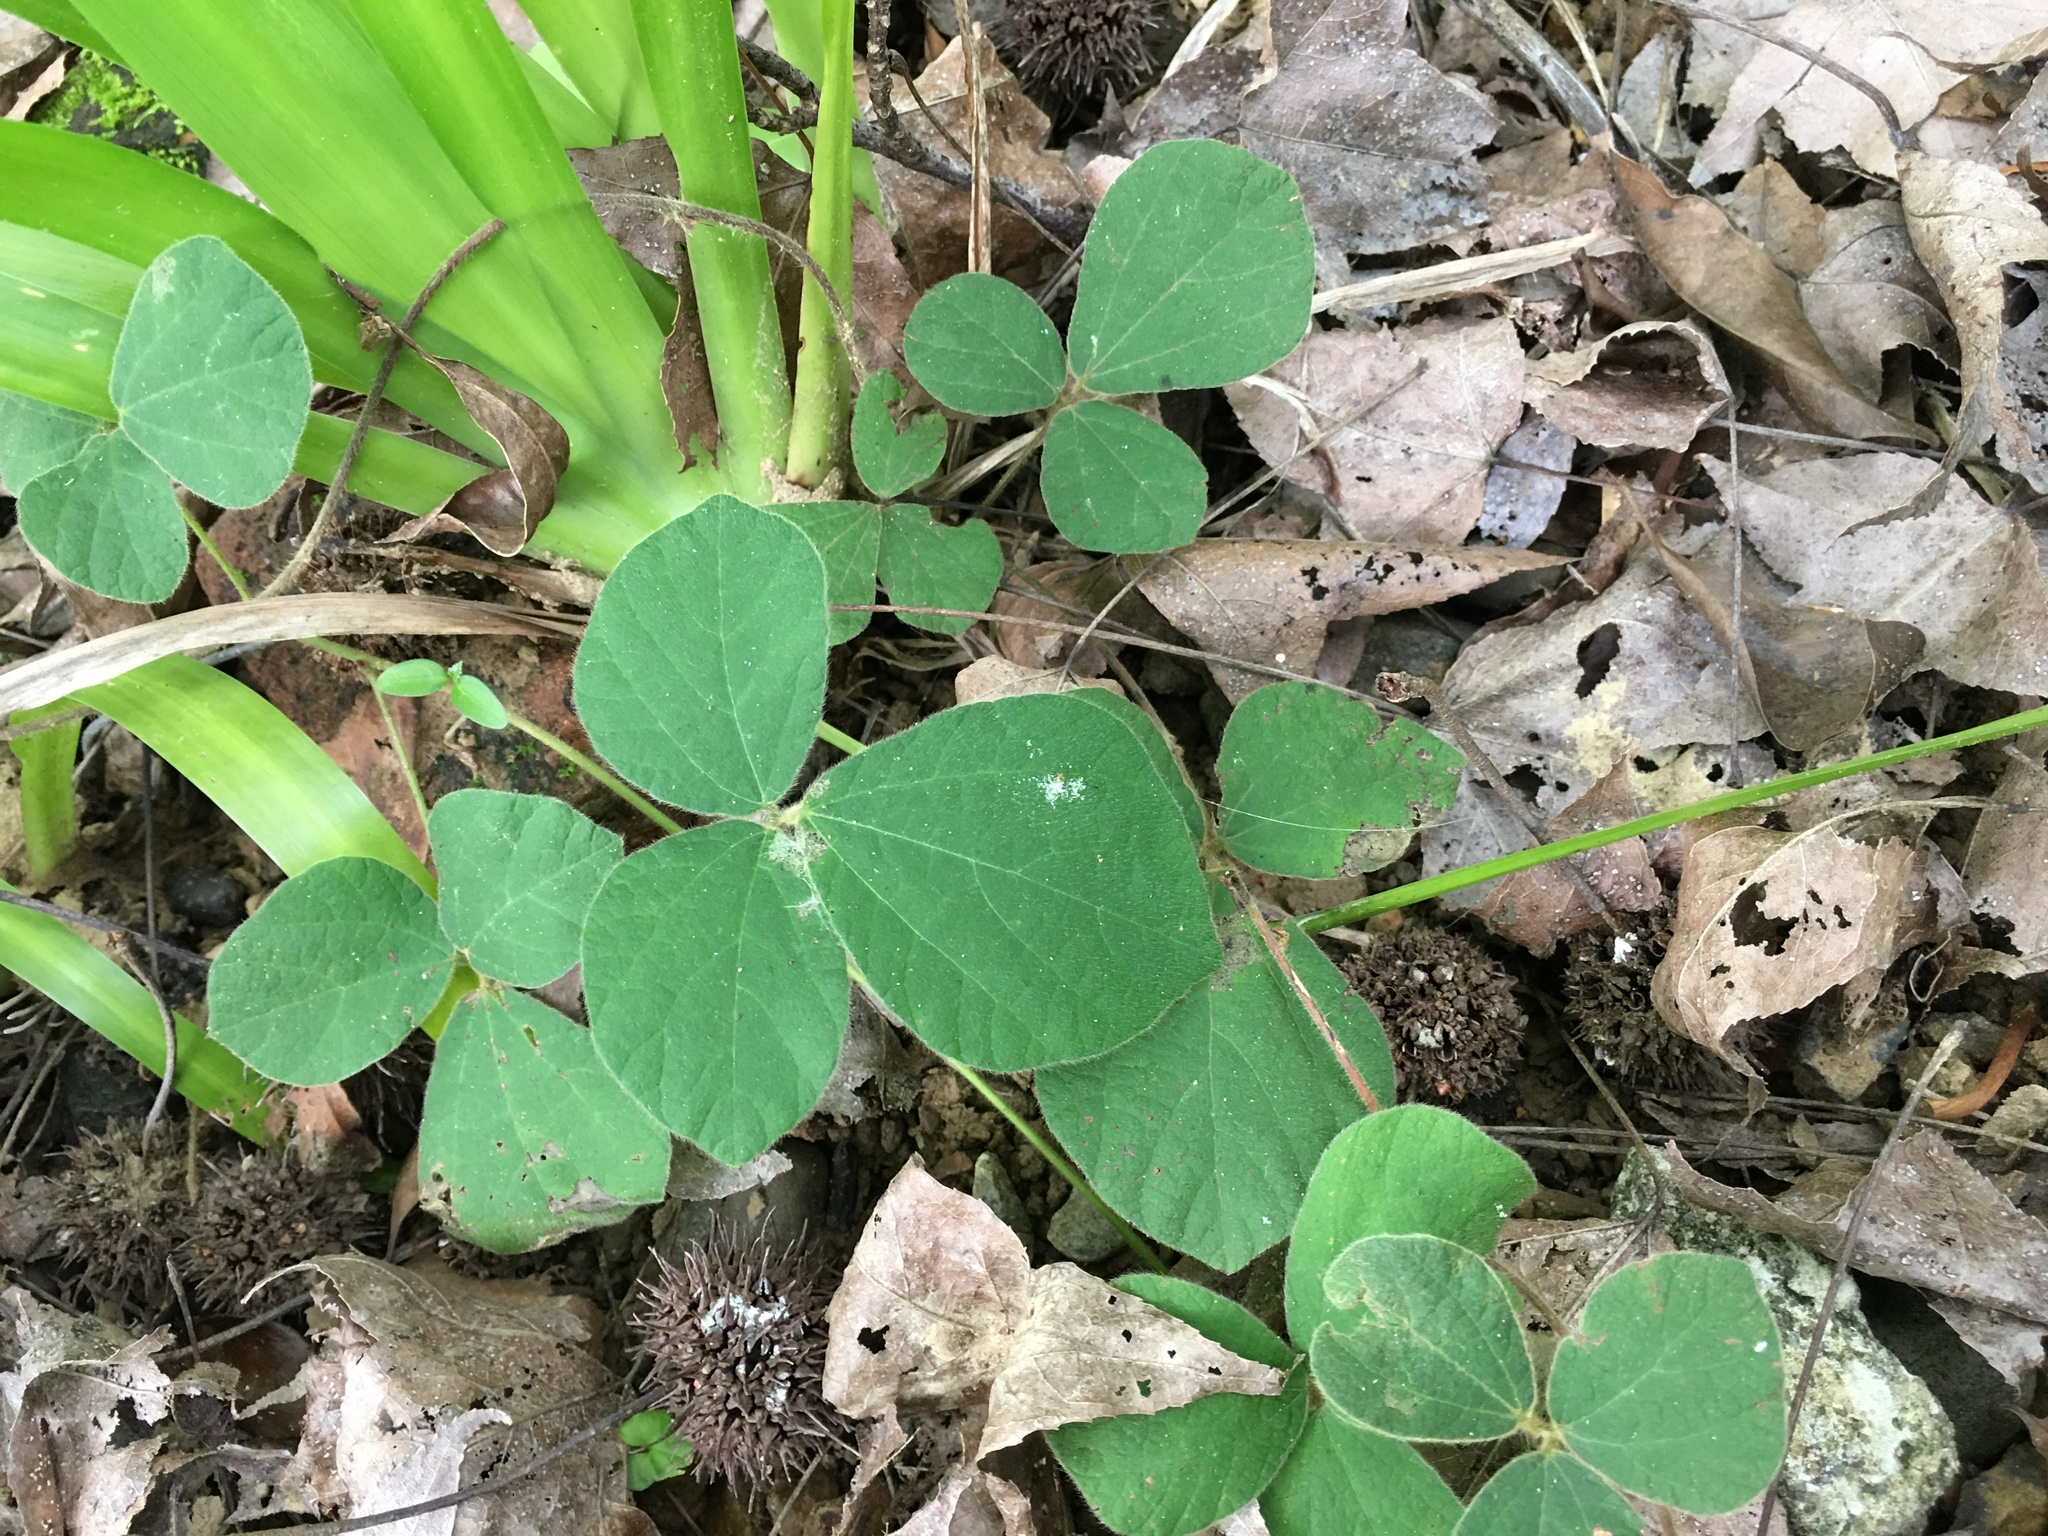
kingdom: Plantae
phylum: Tracheophyta
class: Magnoliopsida
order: Fabales
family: Fabaceae
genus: Rhynchosia
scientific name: Rhynchosia volubilis
